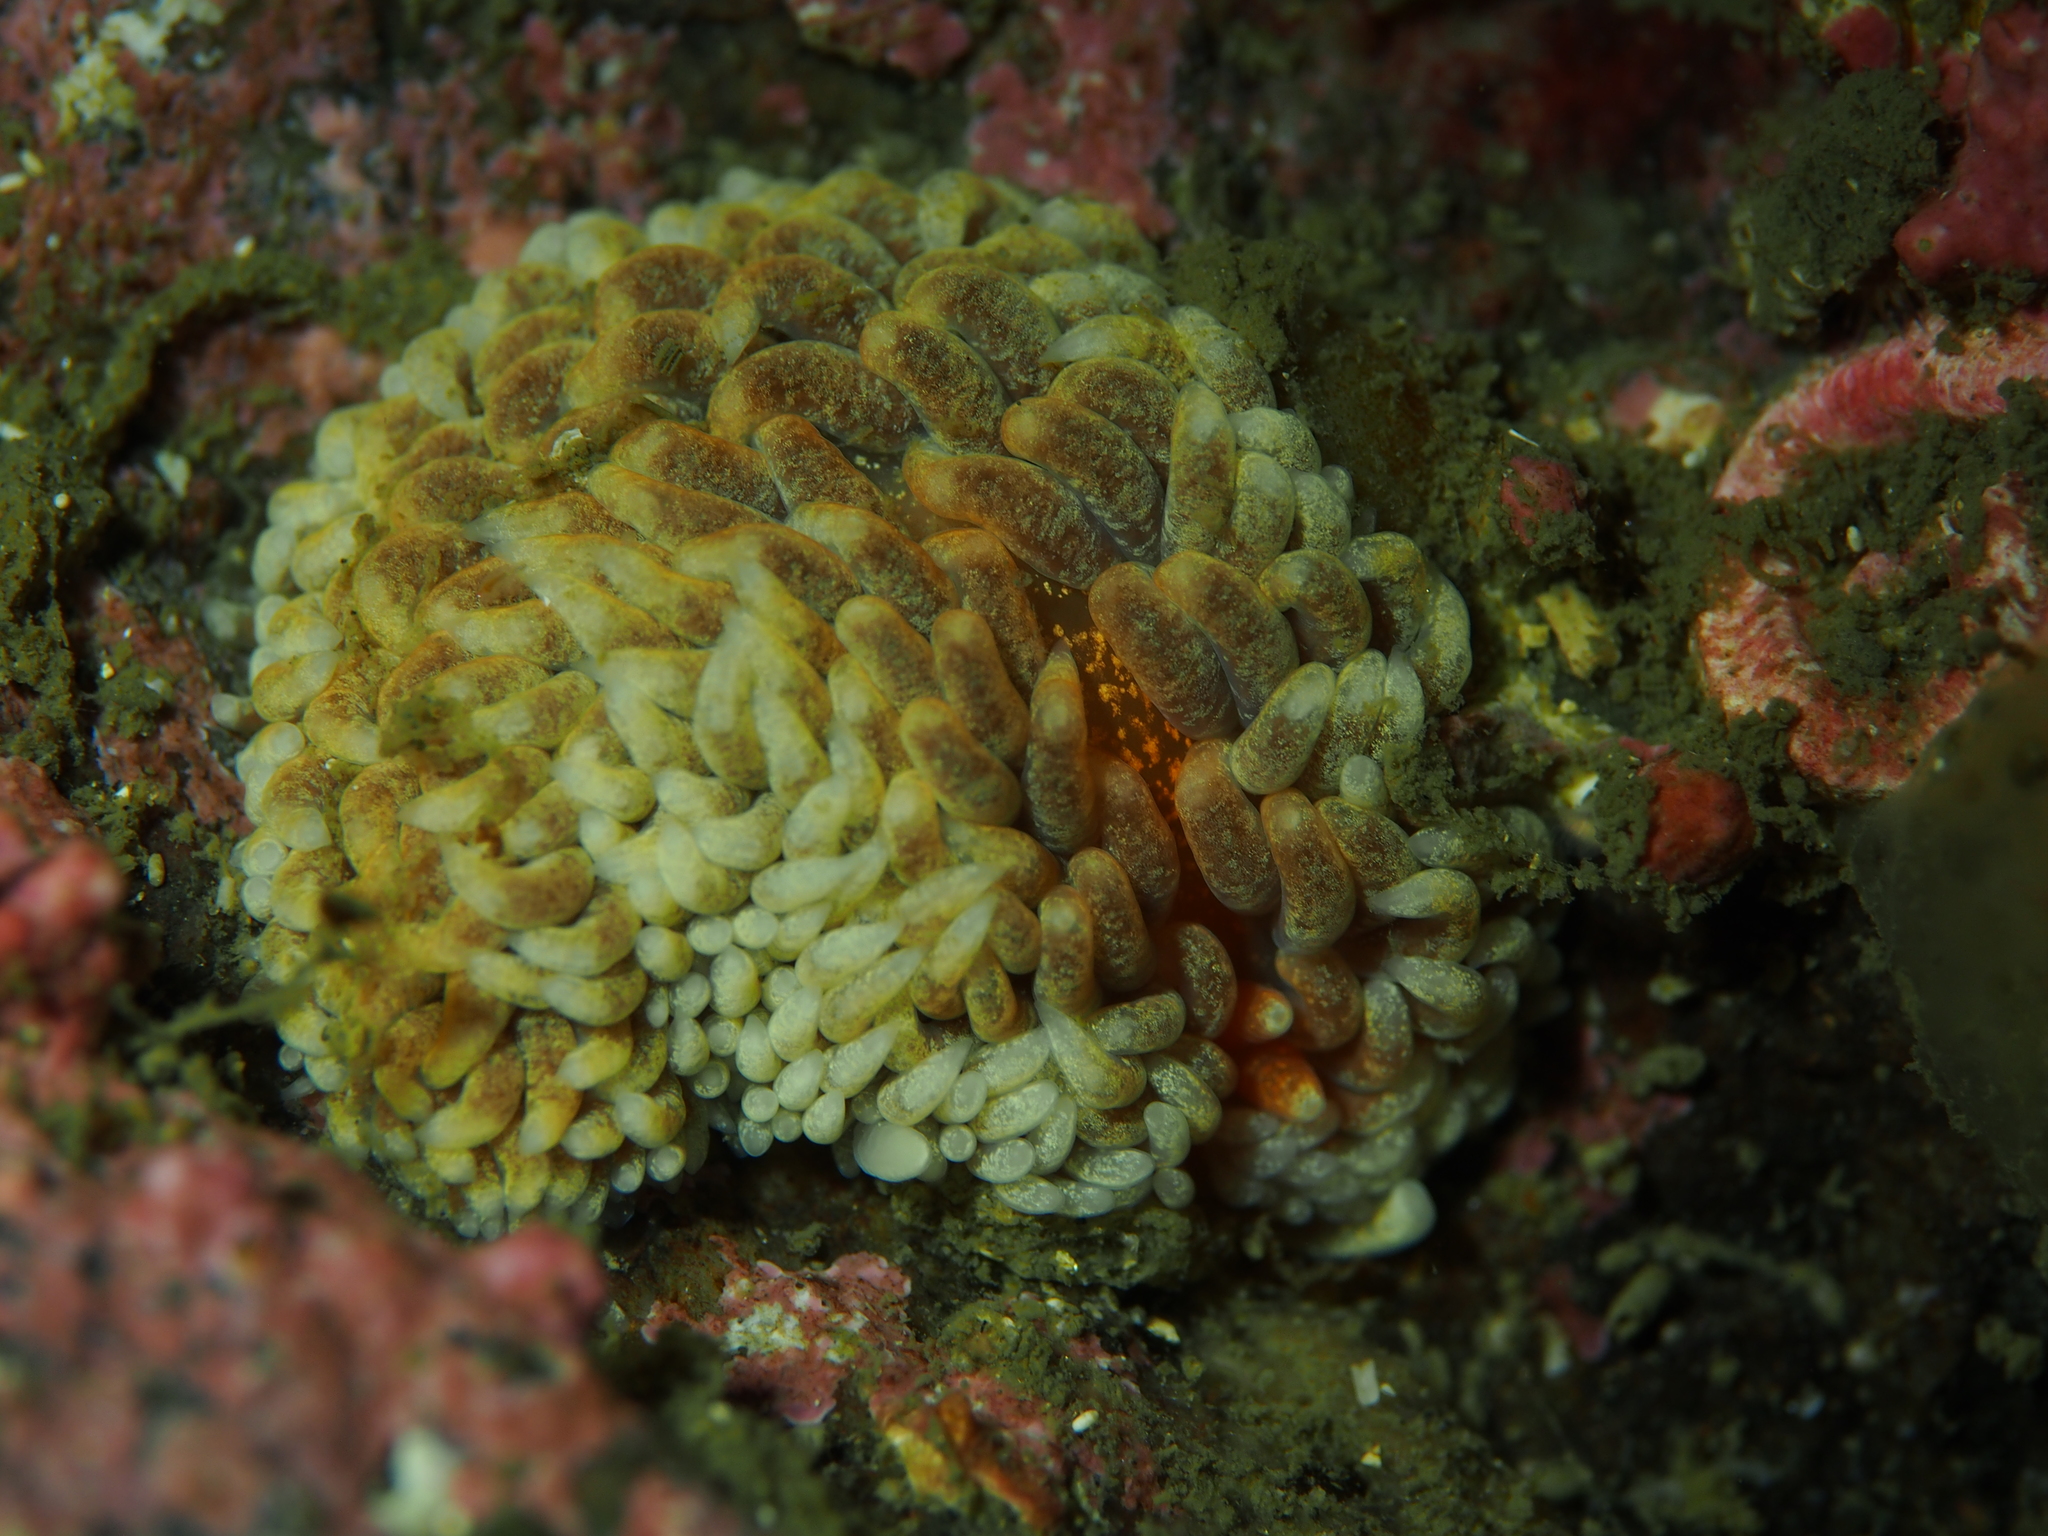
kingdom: Animalia
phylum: Mollusca
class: Gastropoda
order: Nudibranchia
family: Aeolidiidae
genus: Aeolidiella
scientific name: Aeolidiella glauca
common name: Orange-brown aeolid
